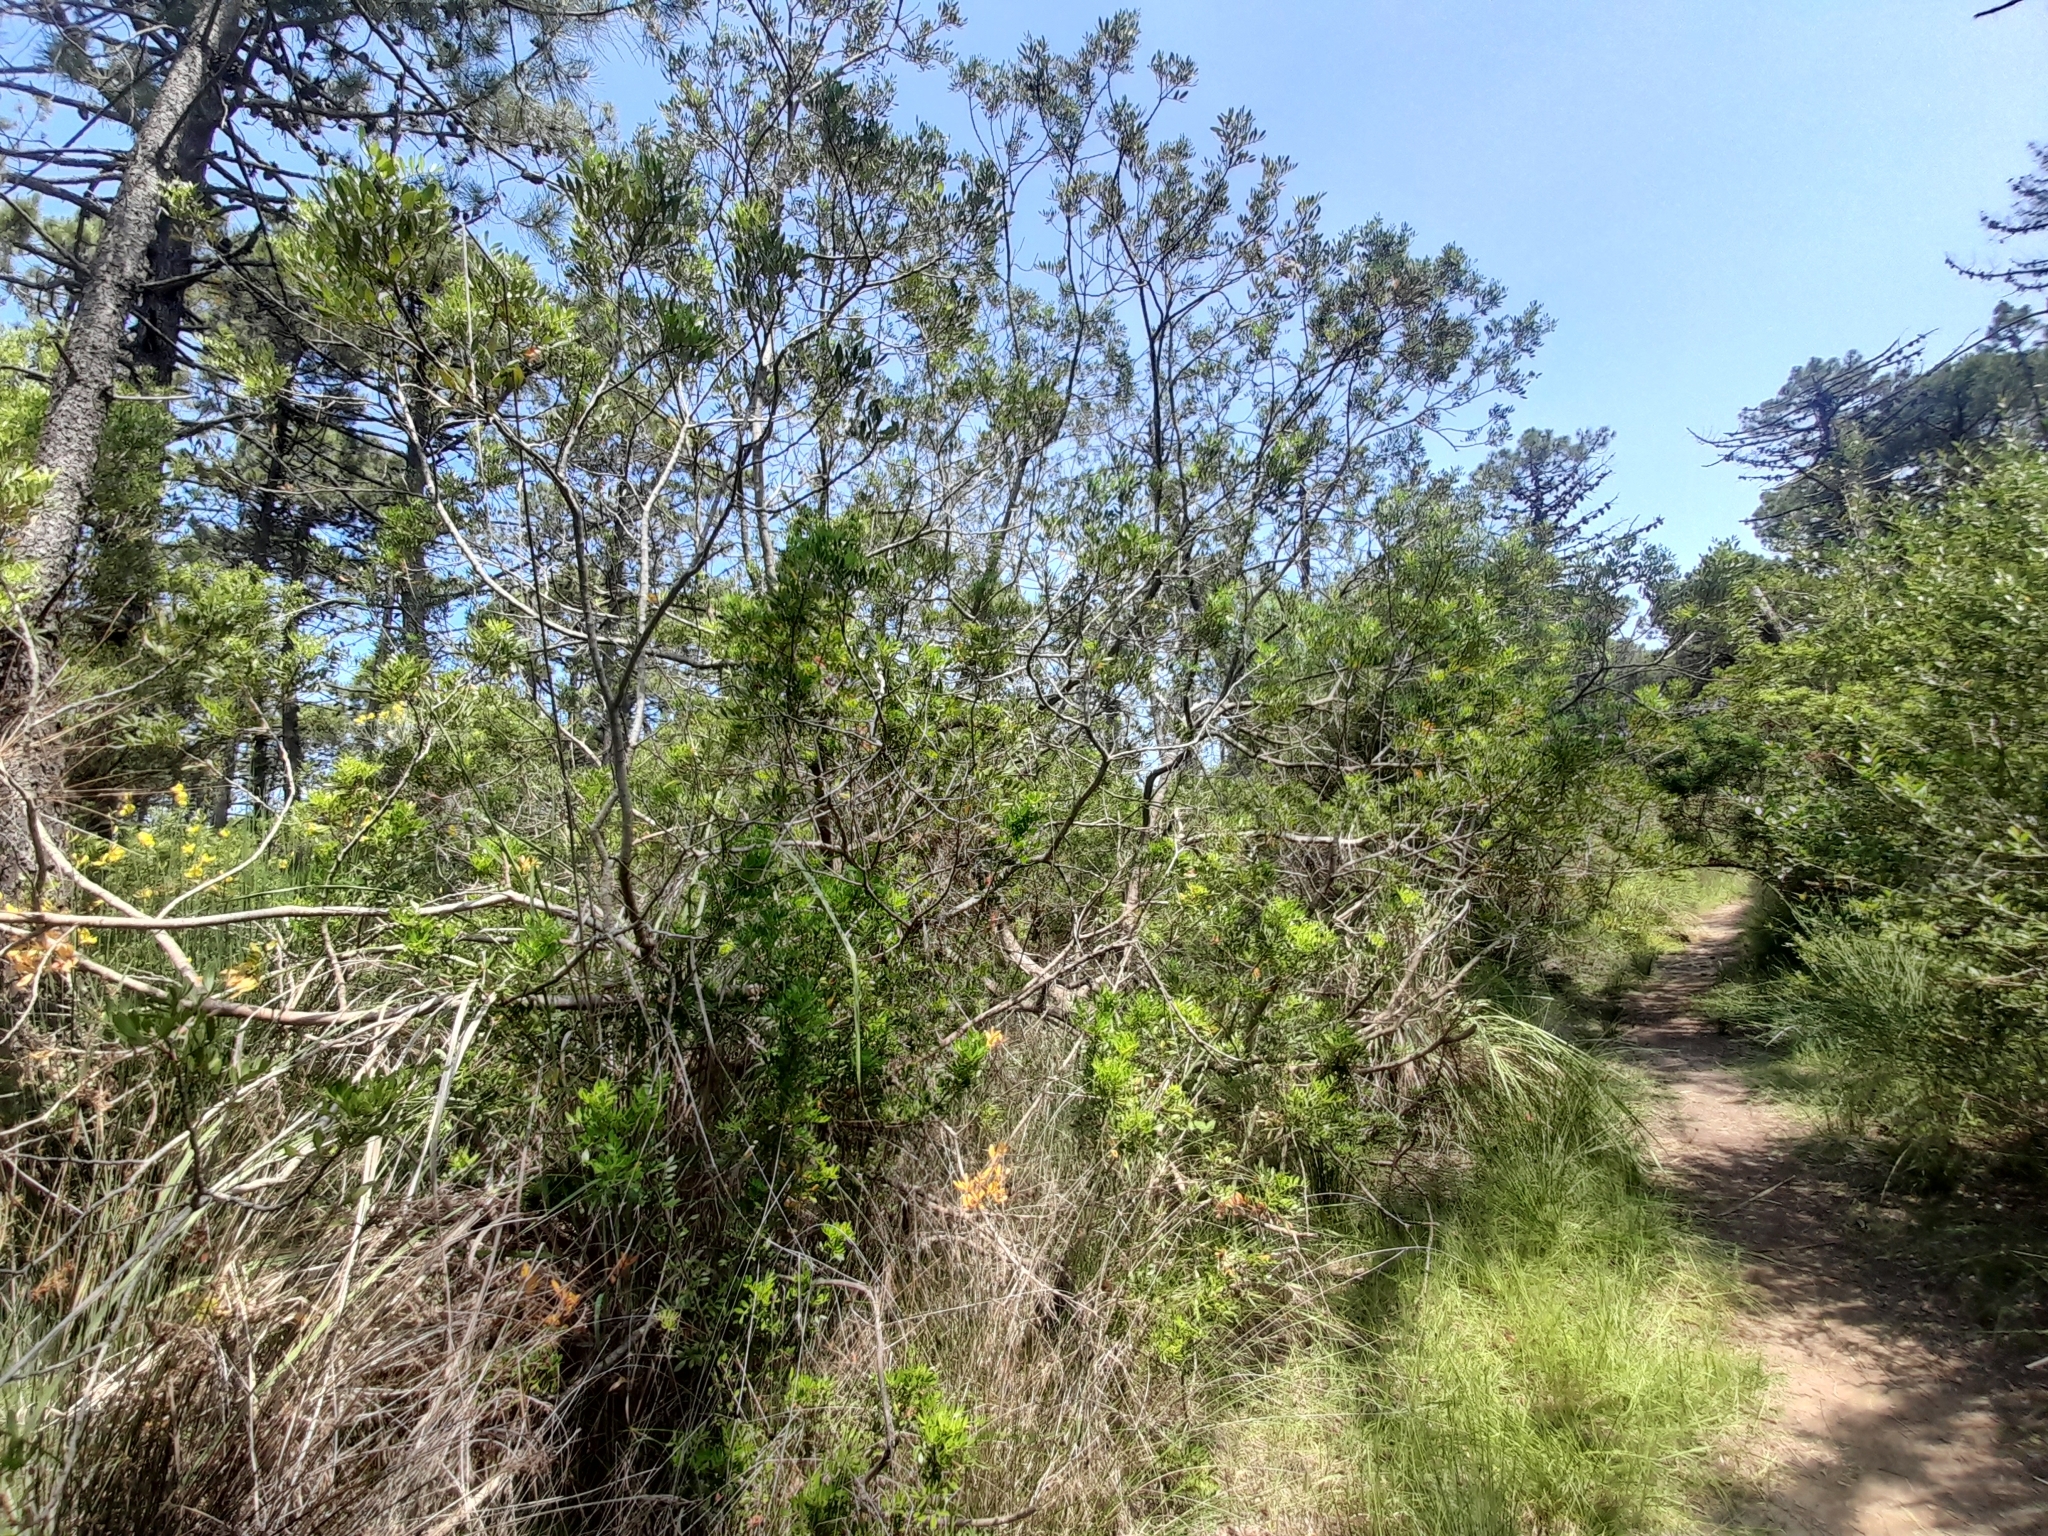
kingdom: Plantae
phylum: Tracheophyta
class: Magnoliopsida
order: Sapindales
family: Anacardiaceae
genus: Pistacia
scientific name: Pistacia lentiscus
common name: Lentisk
